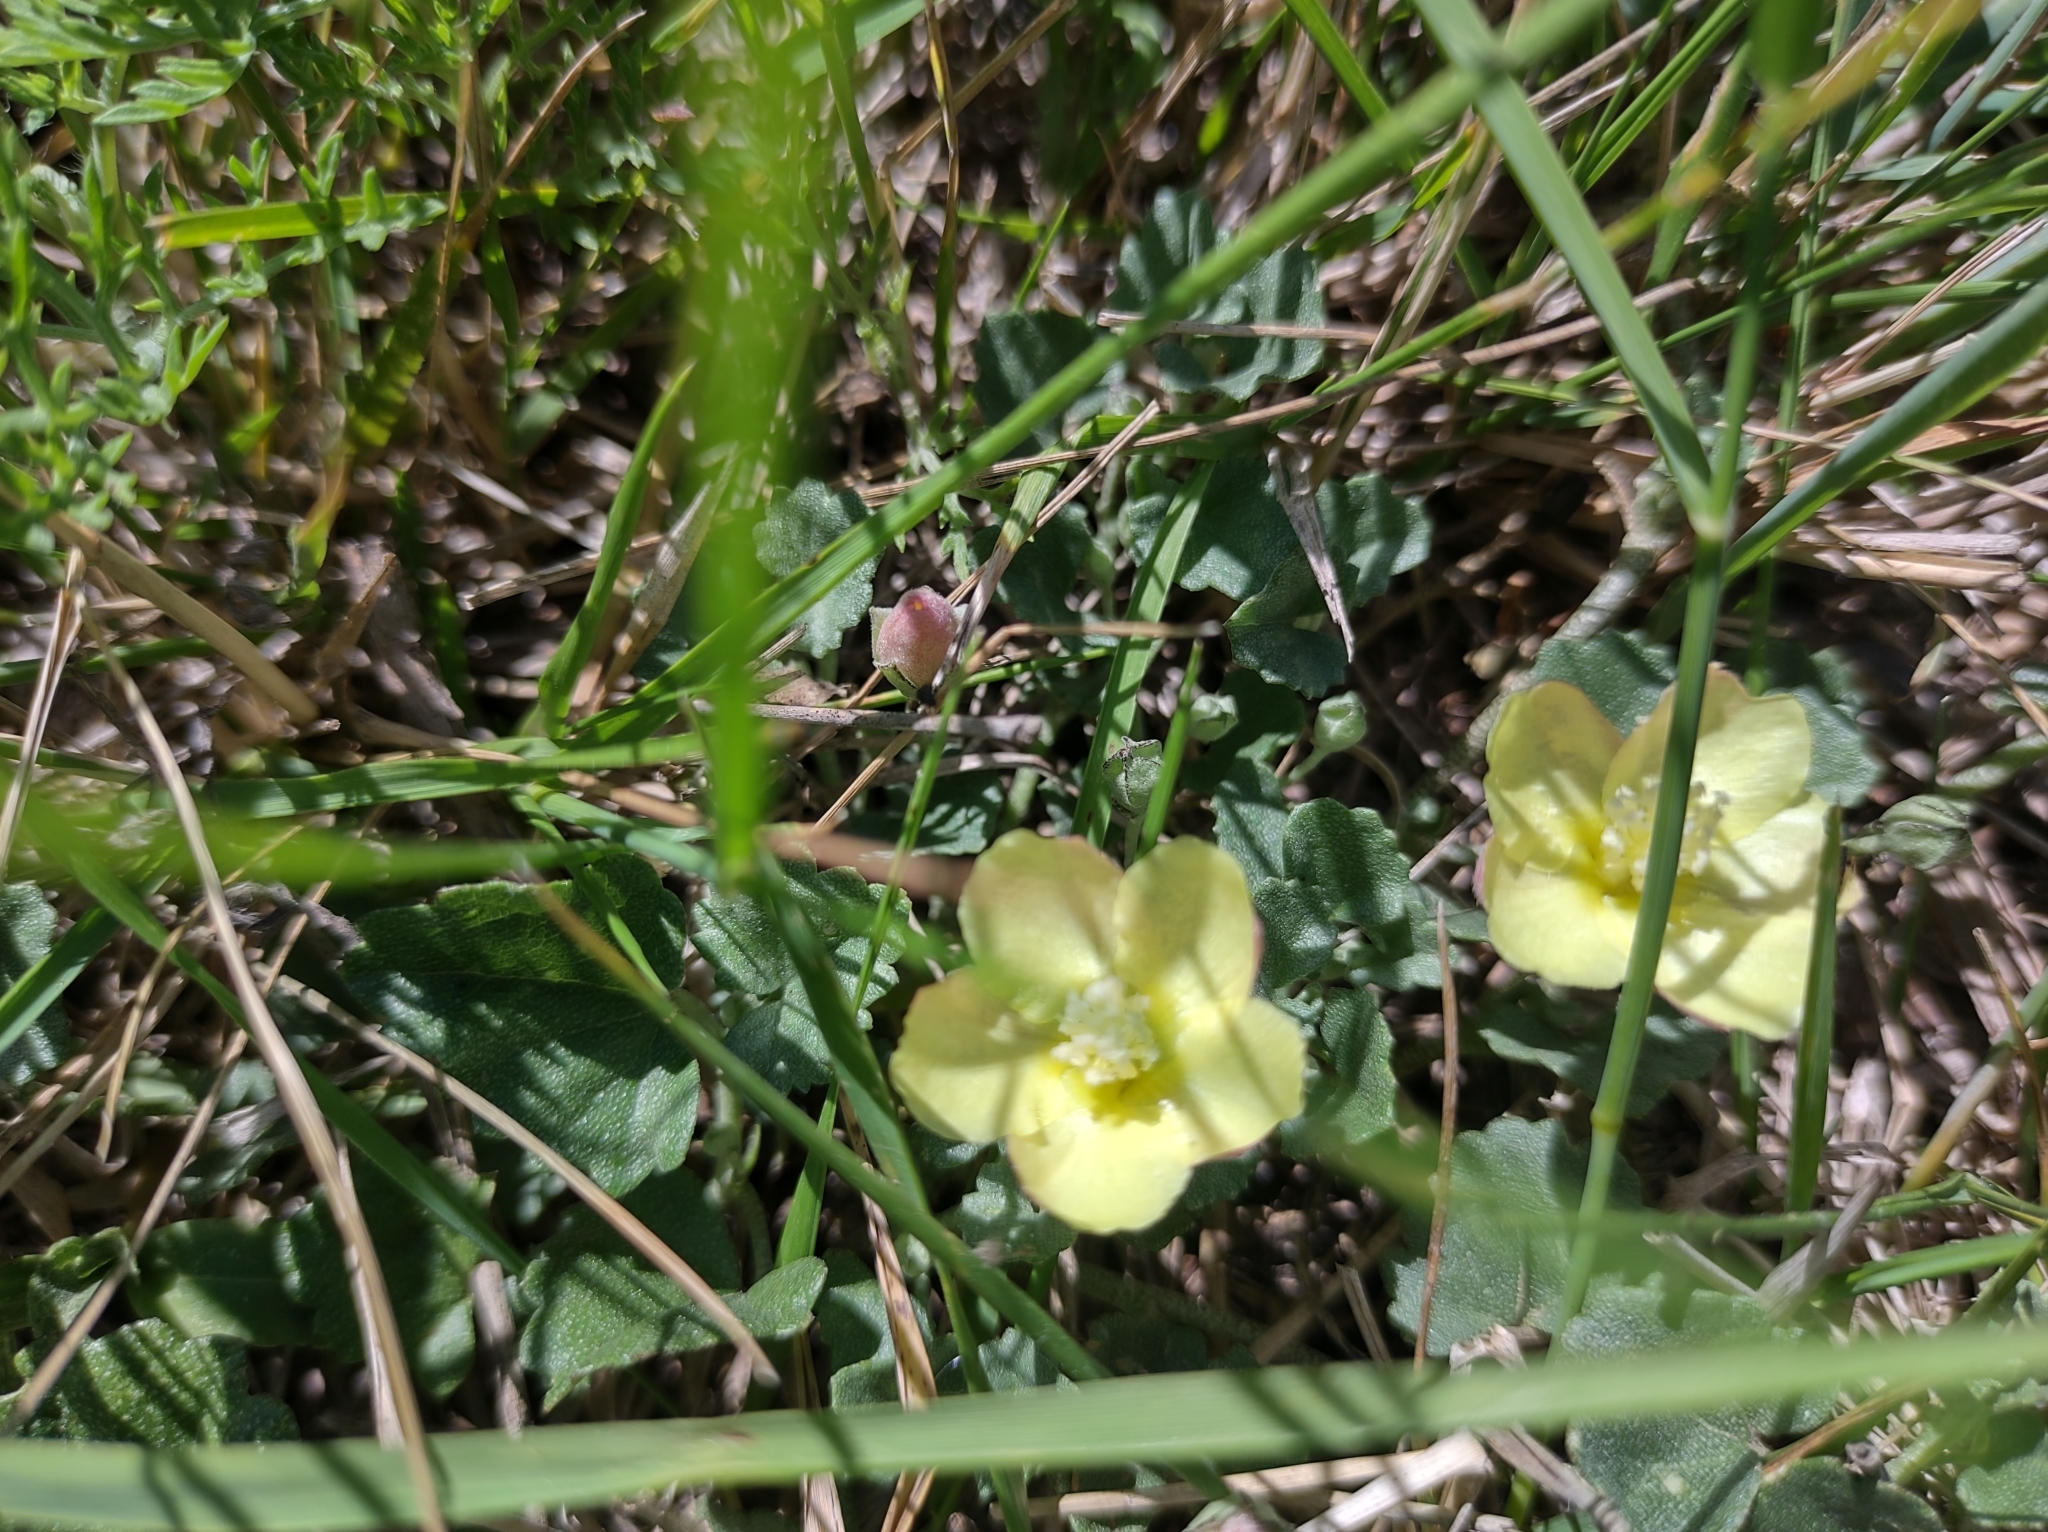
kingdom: Plantae
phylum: Tracheophyta
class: Magnoliopsida
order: Malvales
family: Malvaceae
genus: Malvella
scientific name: Malvella leprosa
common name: Alkali-mallow
